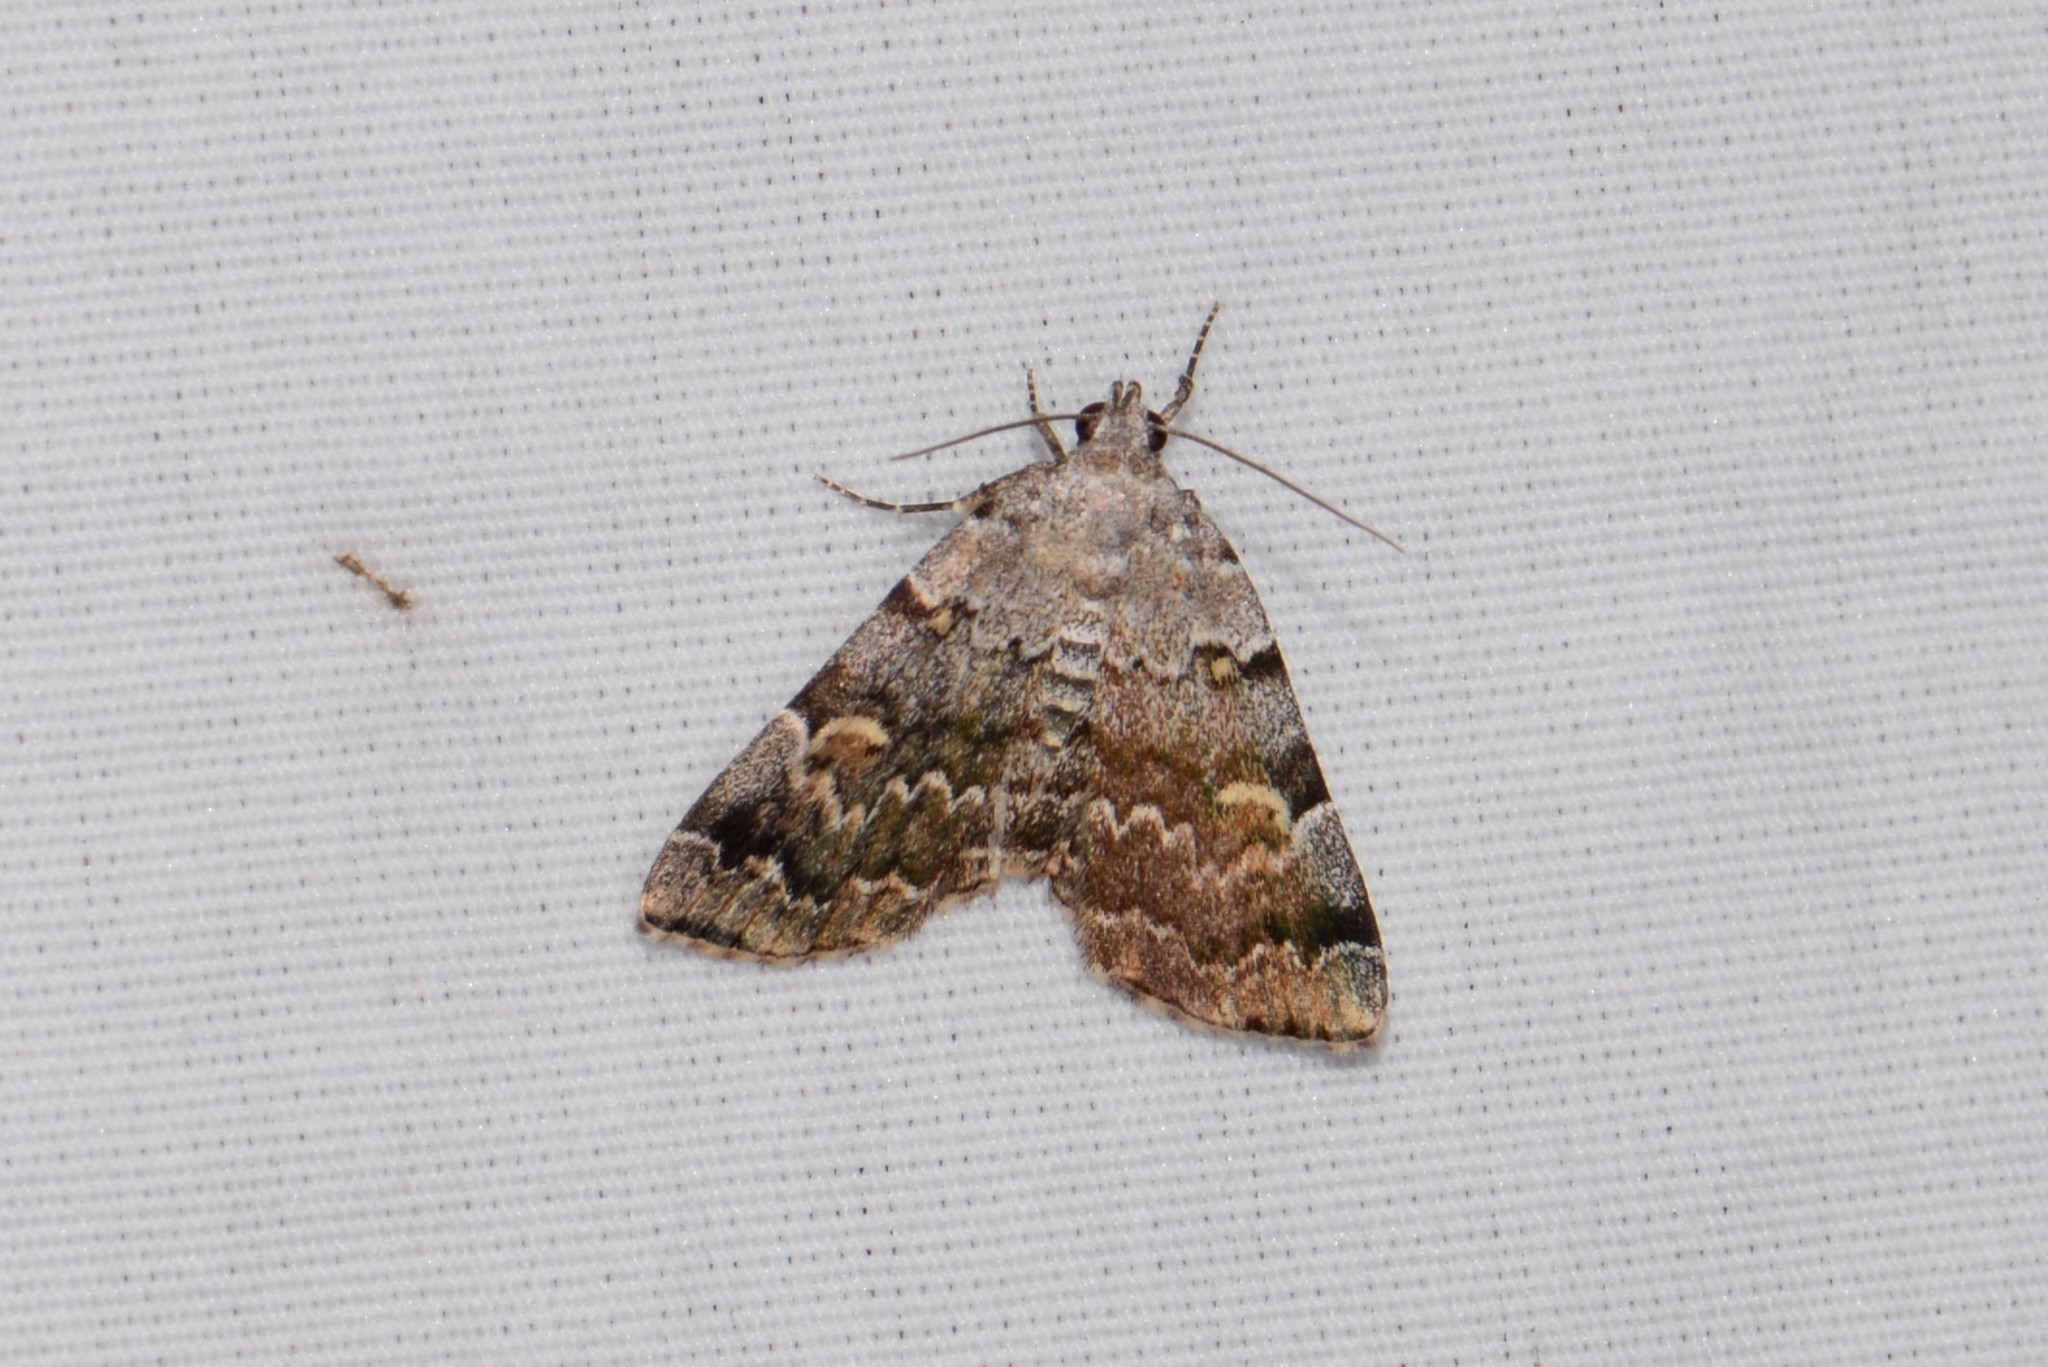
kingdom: Animalia
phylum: Arthropoda
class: Insecta
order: Lepidoptera
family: Erebidae
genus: Idia
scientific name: Idia americalis
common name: American idia moth
